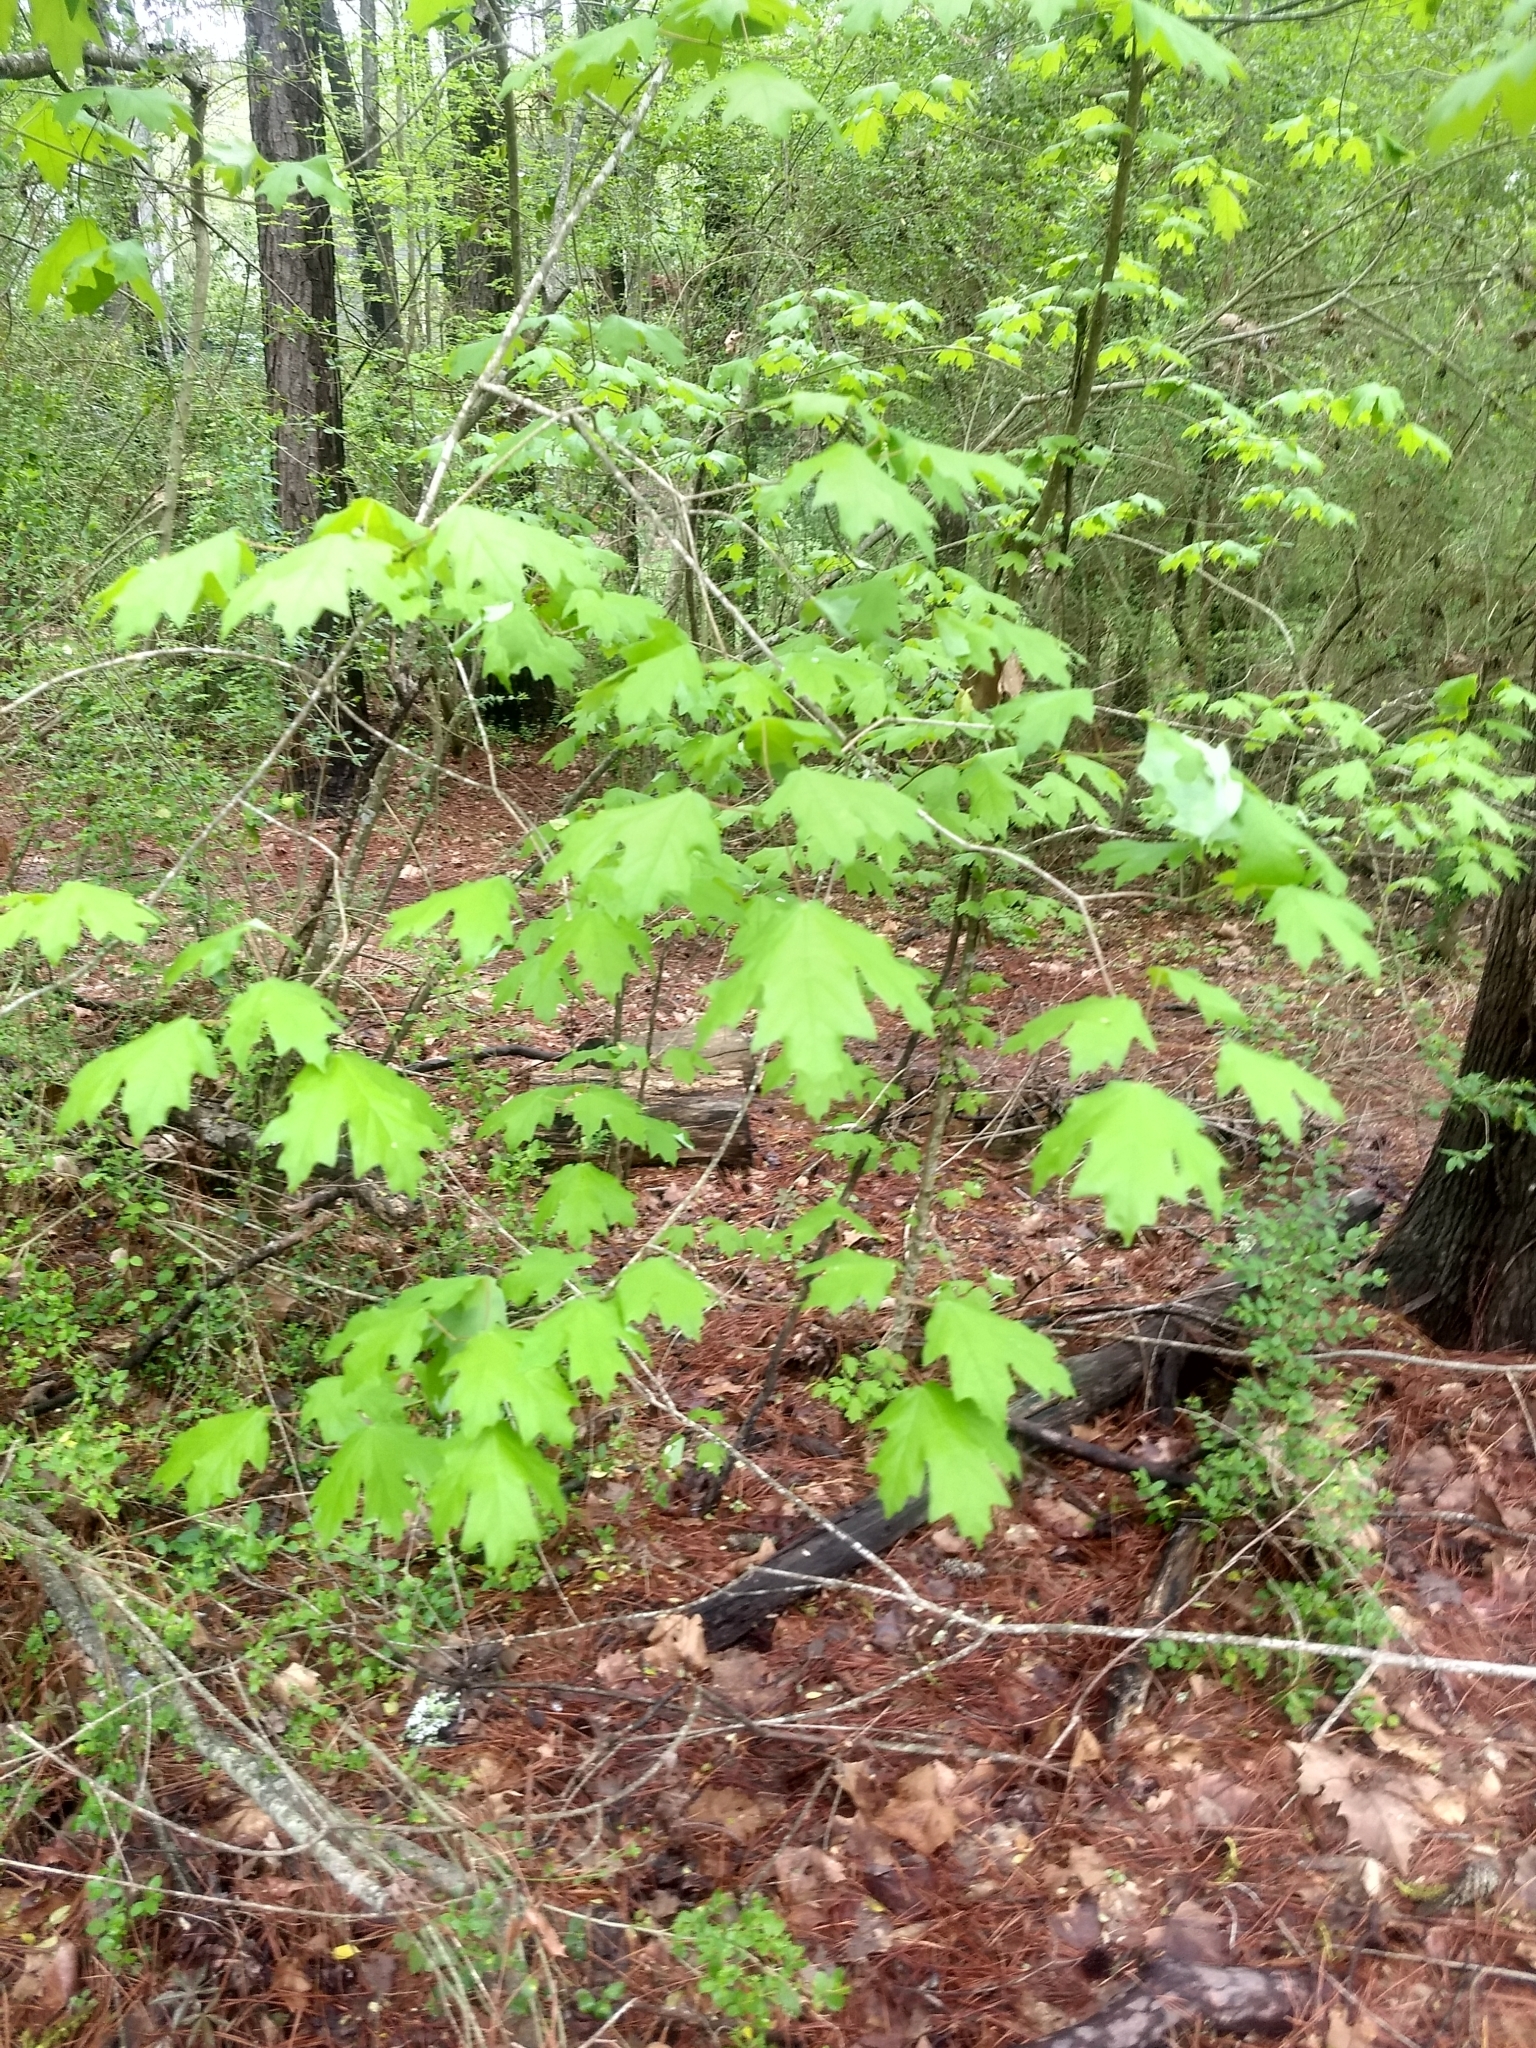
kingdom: Plantae
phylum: Tracheophyta
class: Magnoliopsida
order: Sapindales
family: Sapindaceae
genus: Acer
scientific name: Acer floridanum
